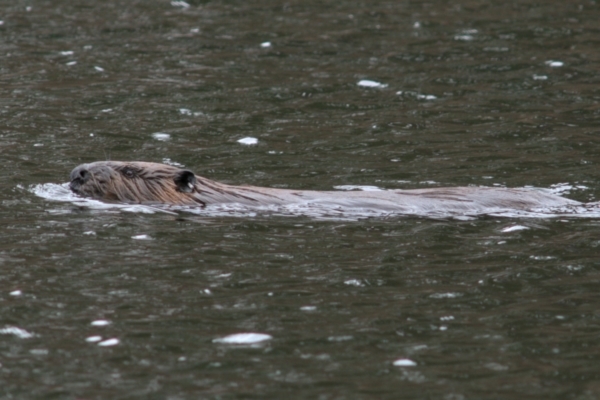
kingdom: Animalia
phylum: Chordata
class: Mammalia
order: Rodentia
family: Castoridae
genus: Castor
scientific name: Castor canadensis
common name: American beaver
